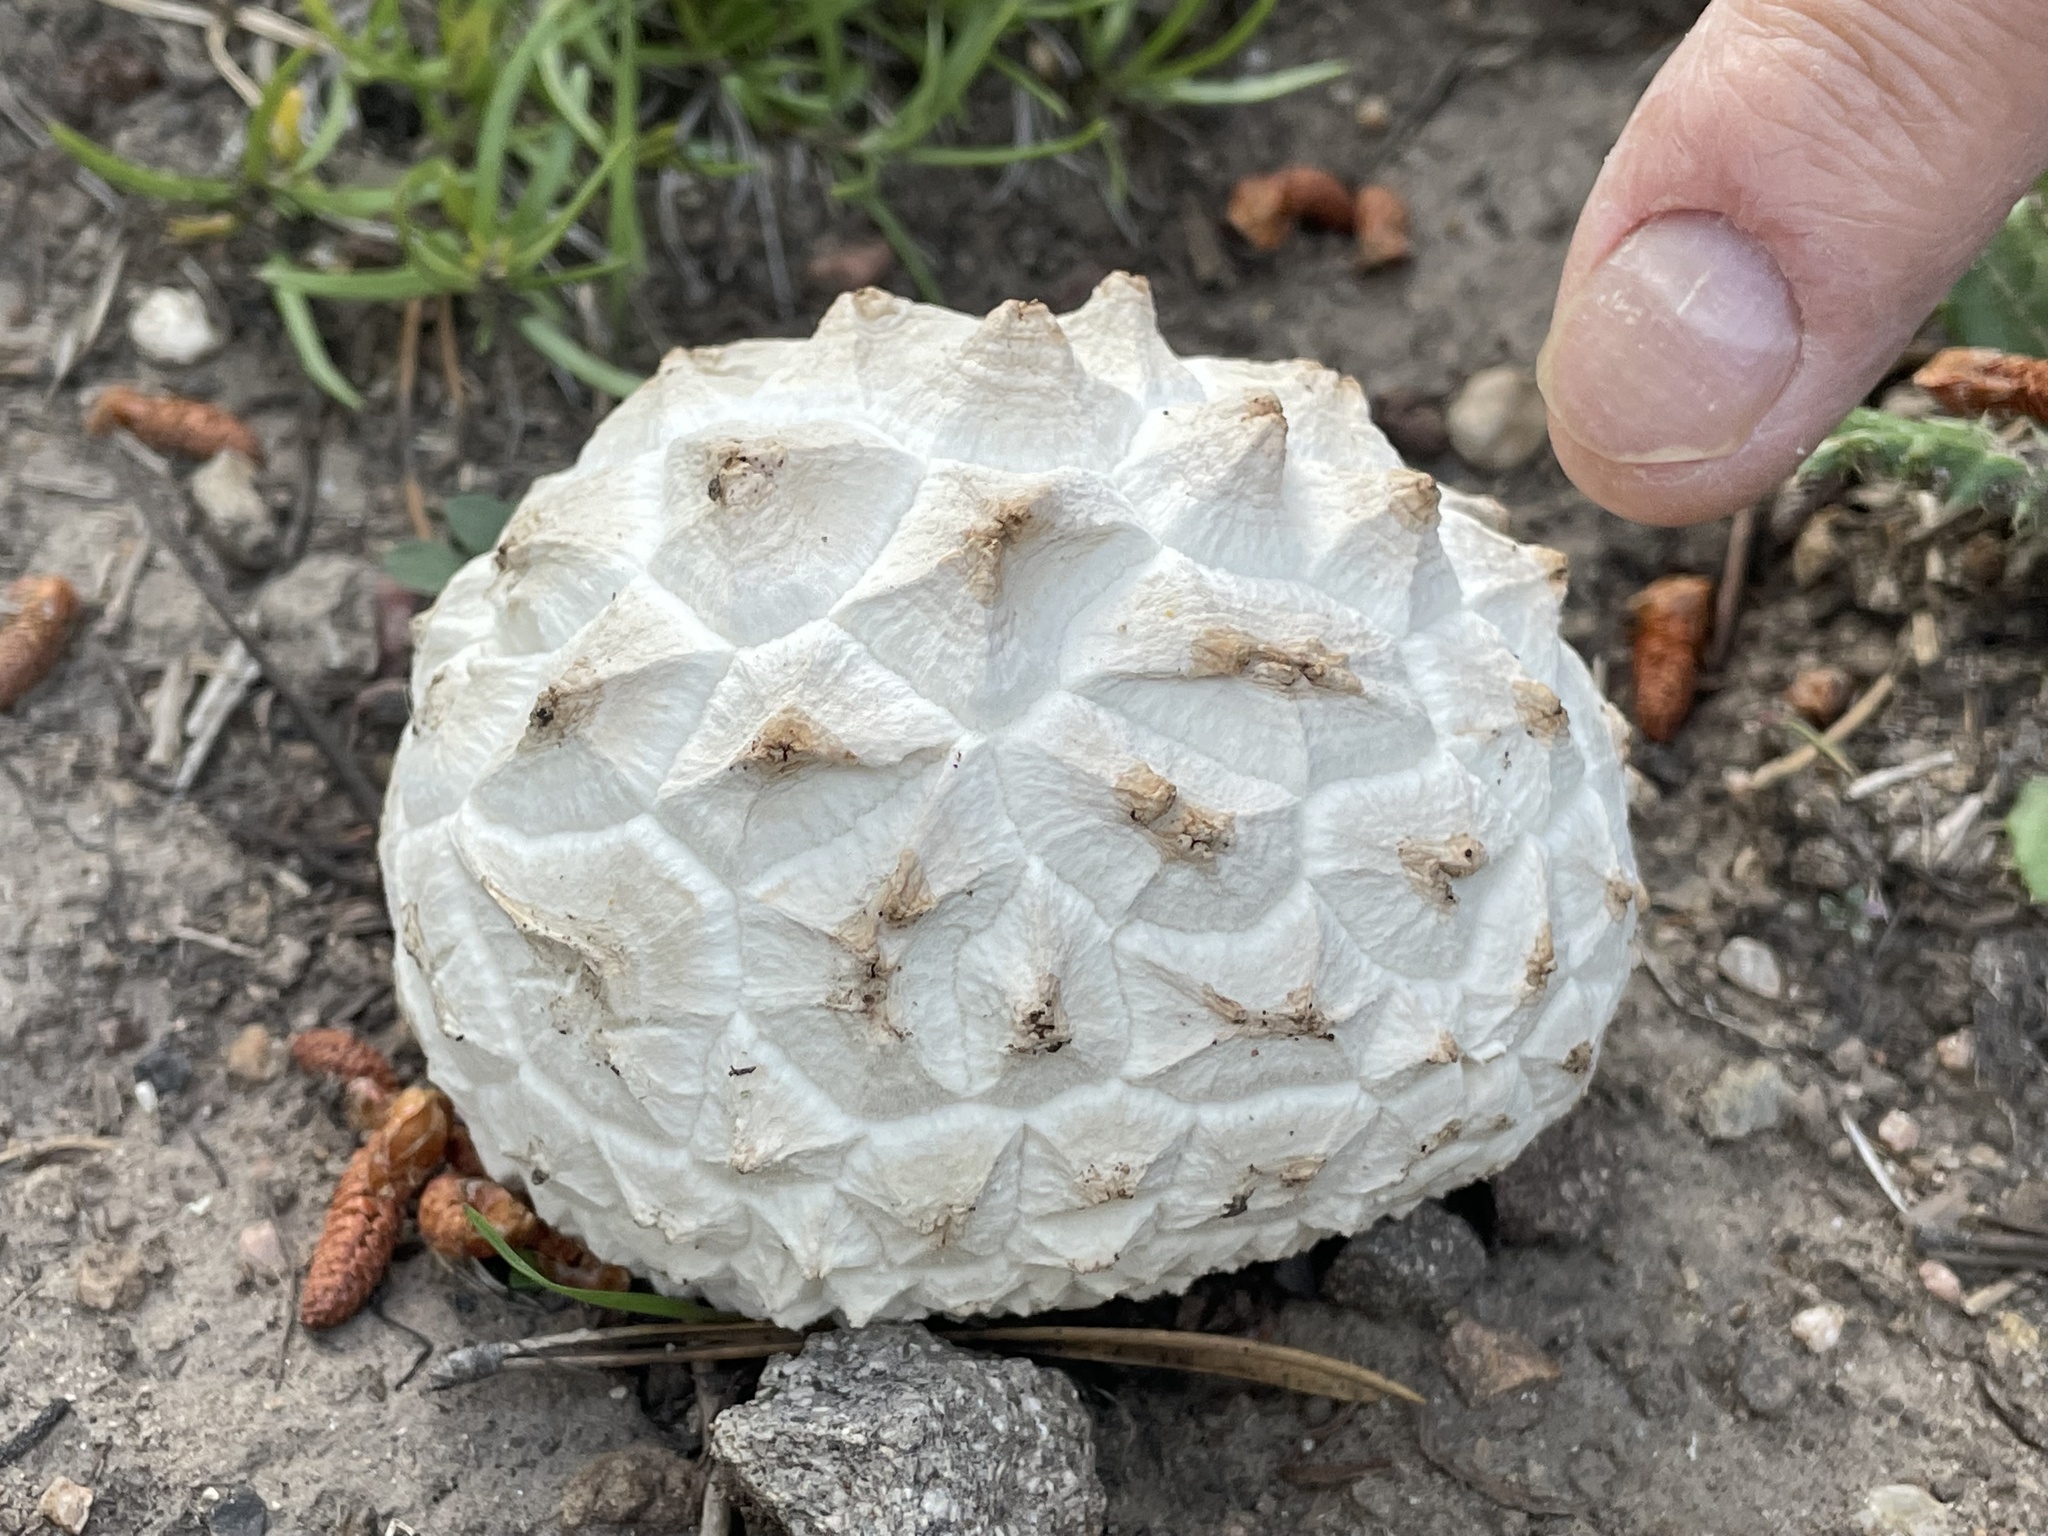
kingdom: Fungi
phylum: Basidiomycota
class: Agaricomycetes
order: Agaricales
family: Lycoperdaceae
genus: Calvatia
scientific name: Calvatia sculpta
